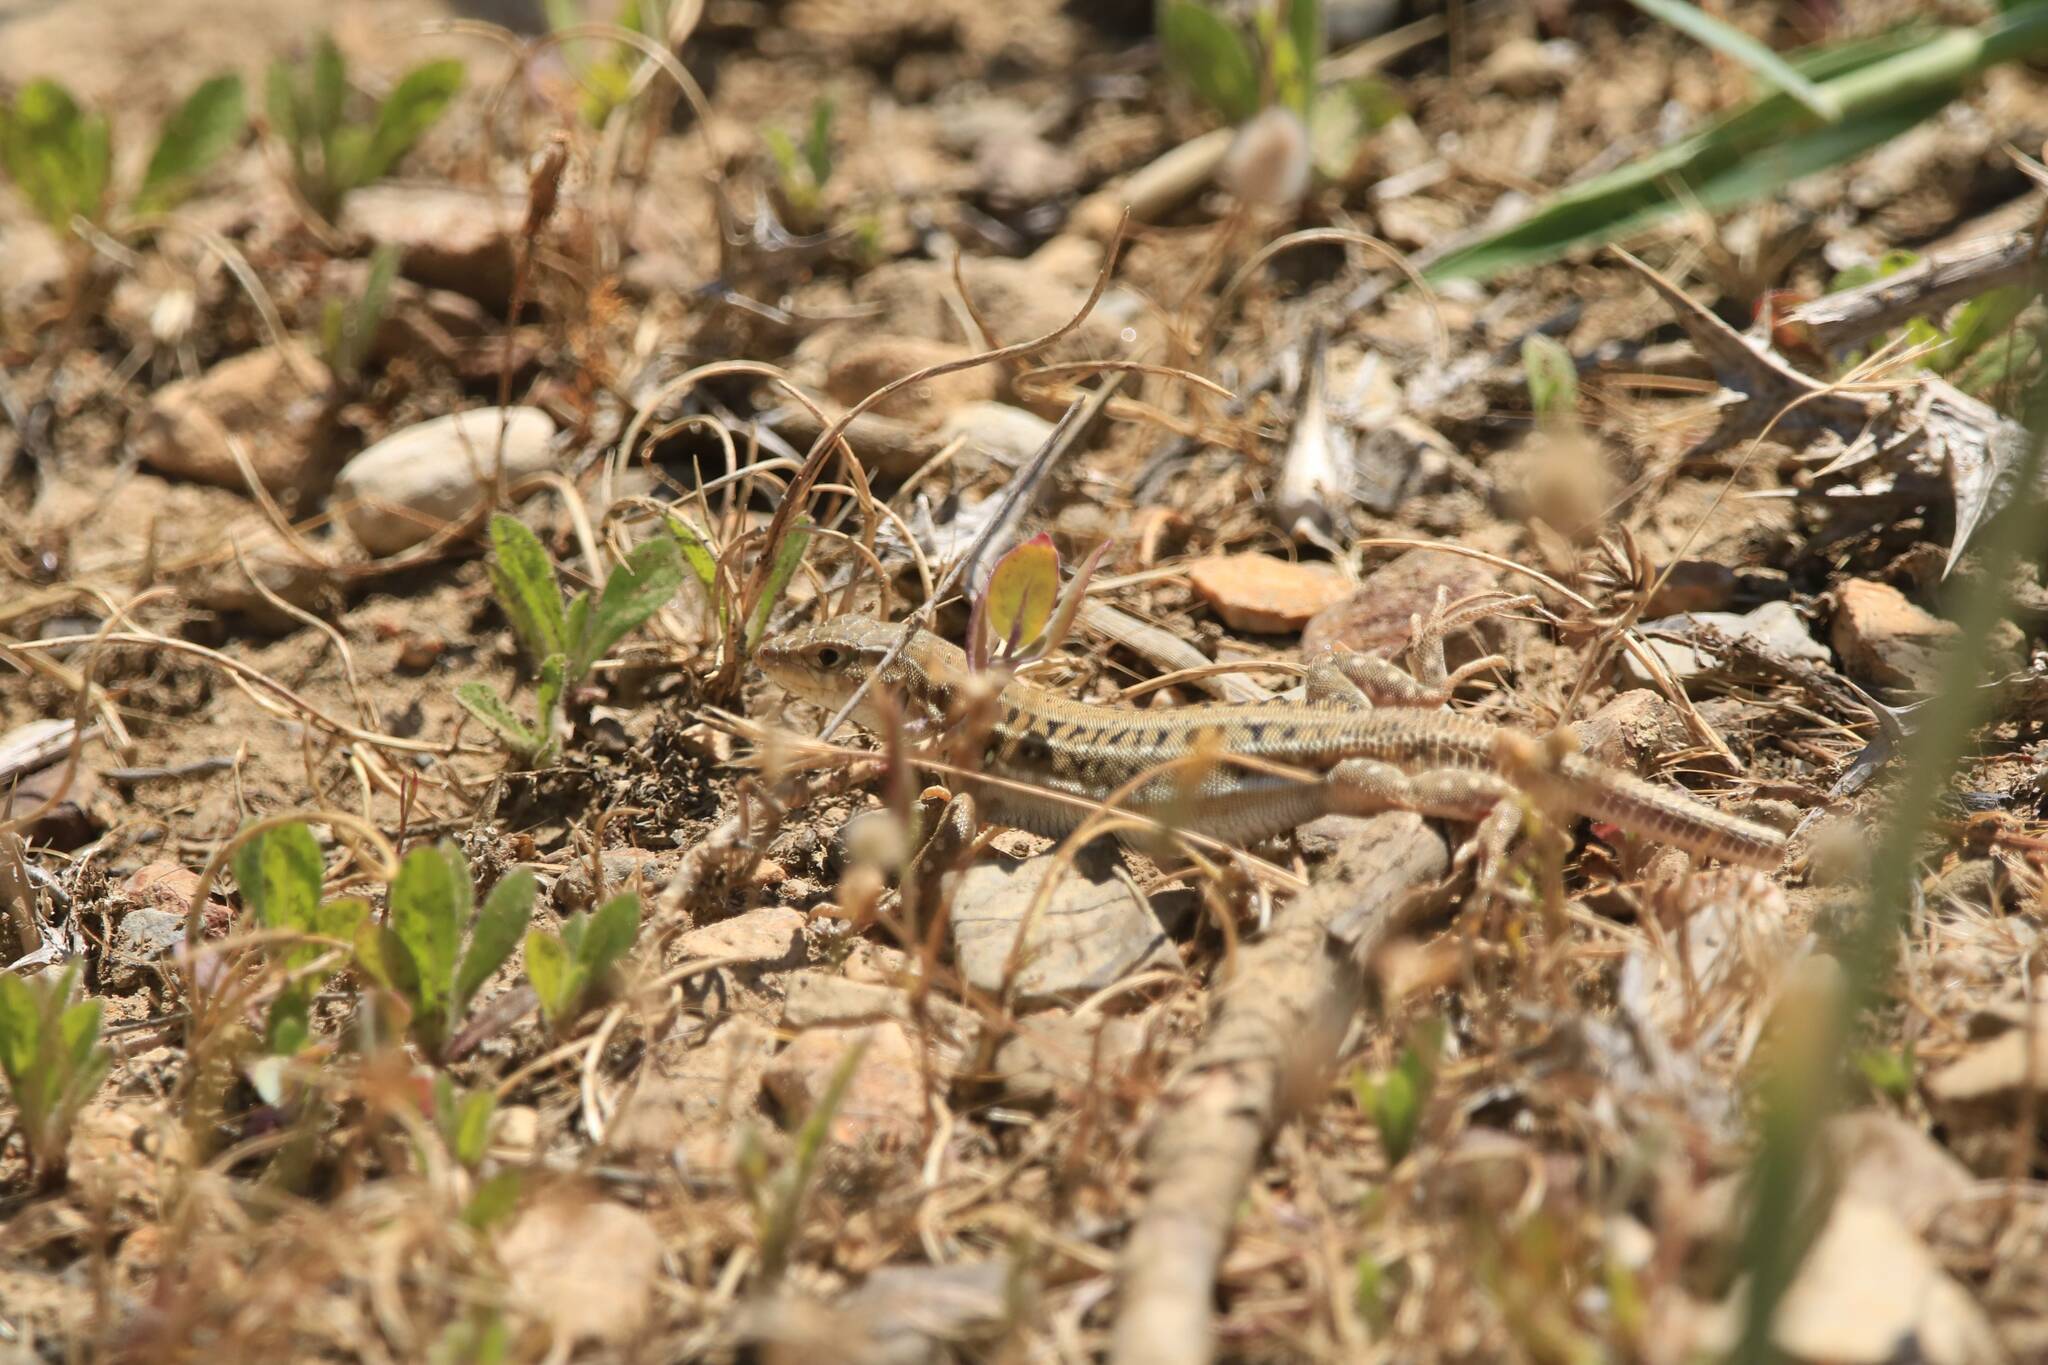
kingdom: Animalia
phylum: Chordata
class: Squamata
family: Lacertidae
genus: Acanthodactylus
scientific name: Acanthodactylus erythrurus
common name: Spiny-footed lizard
